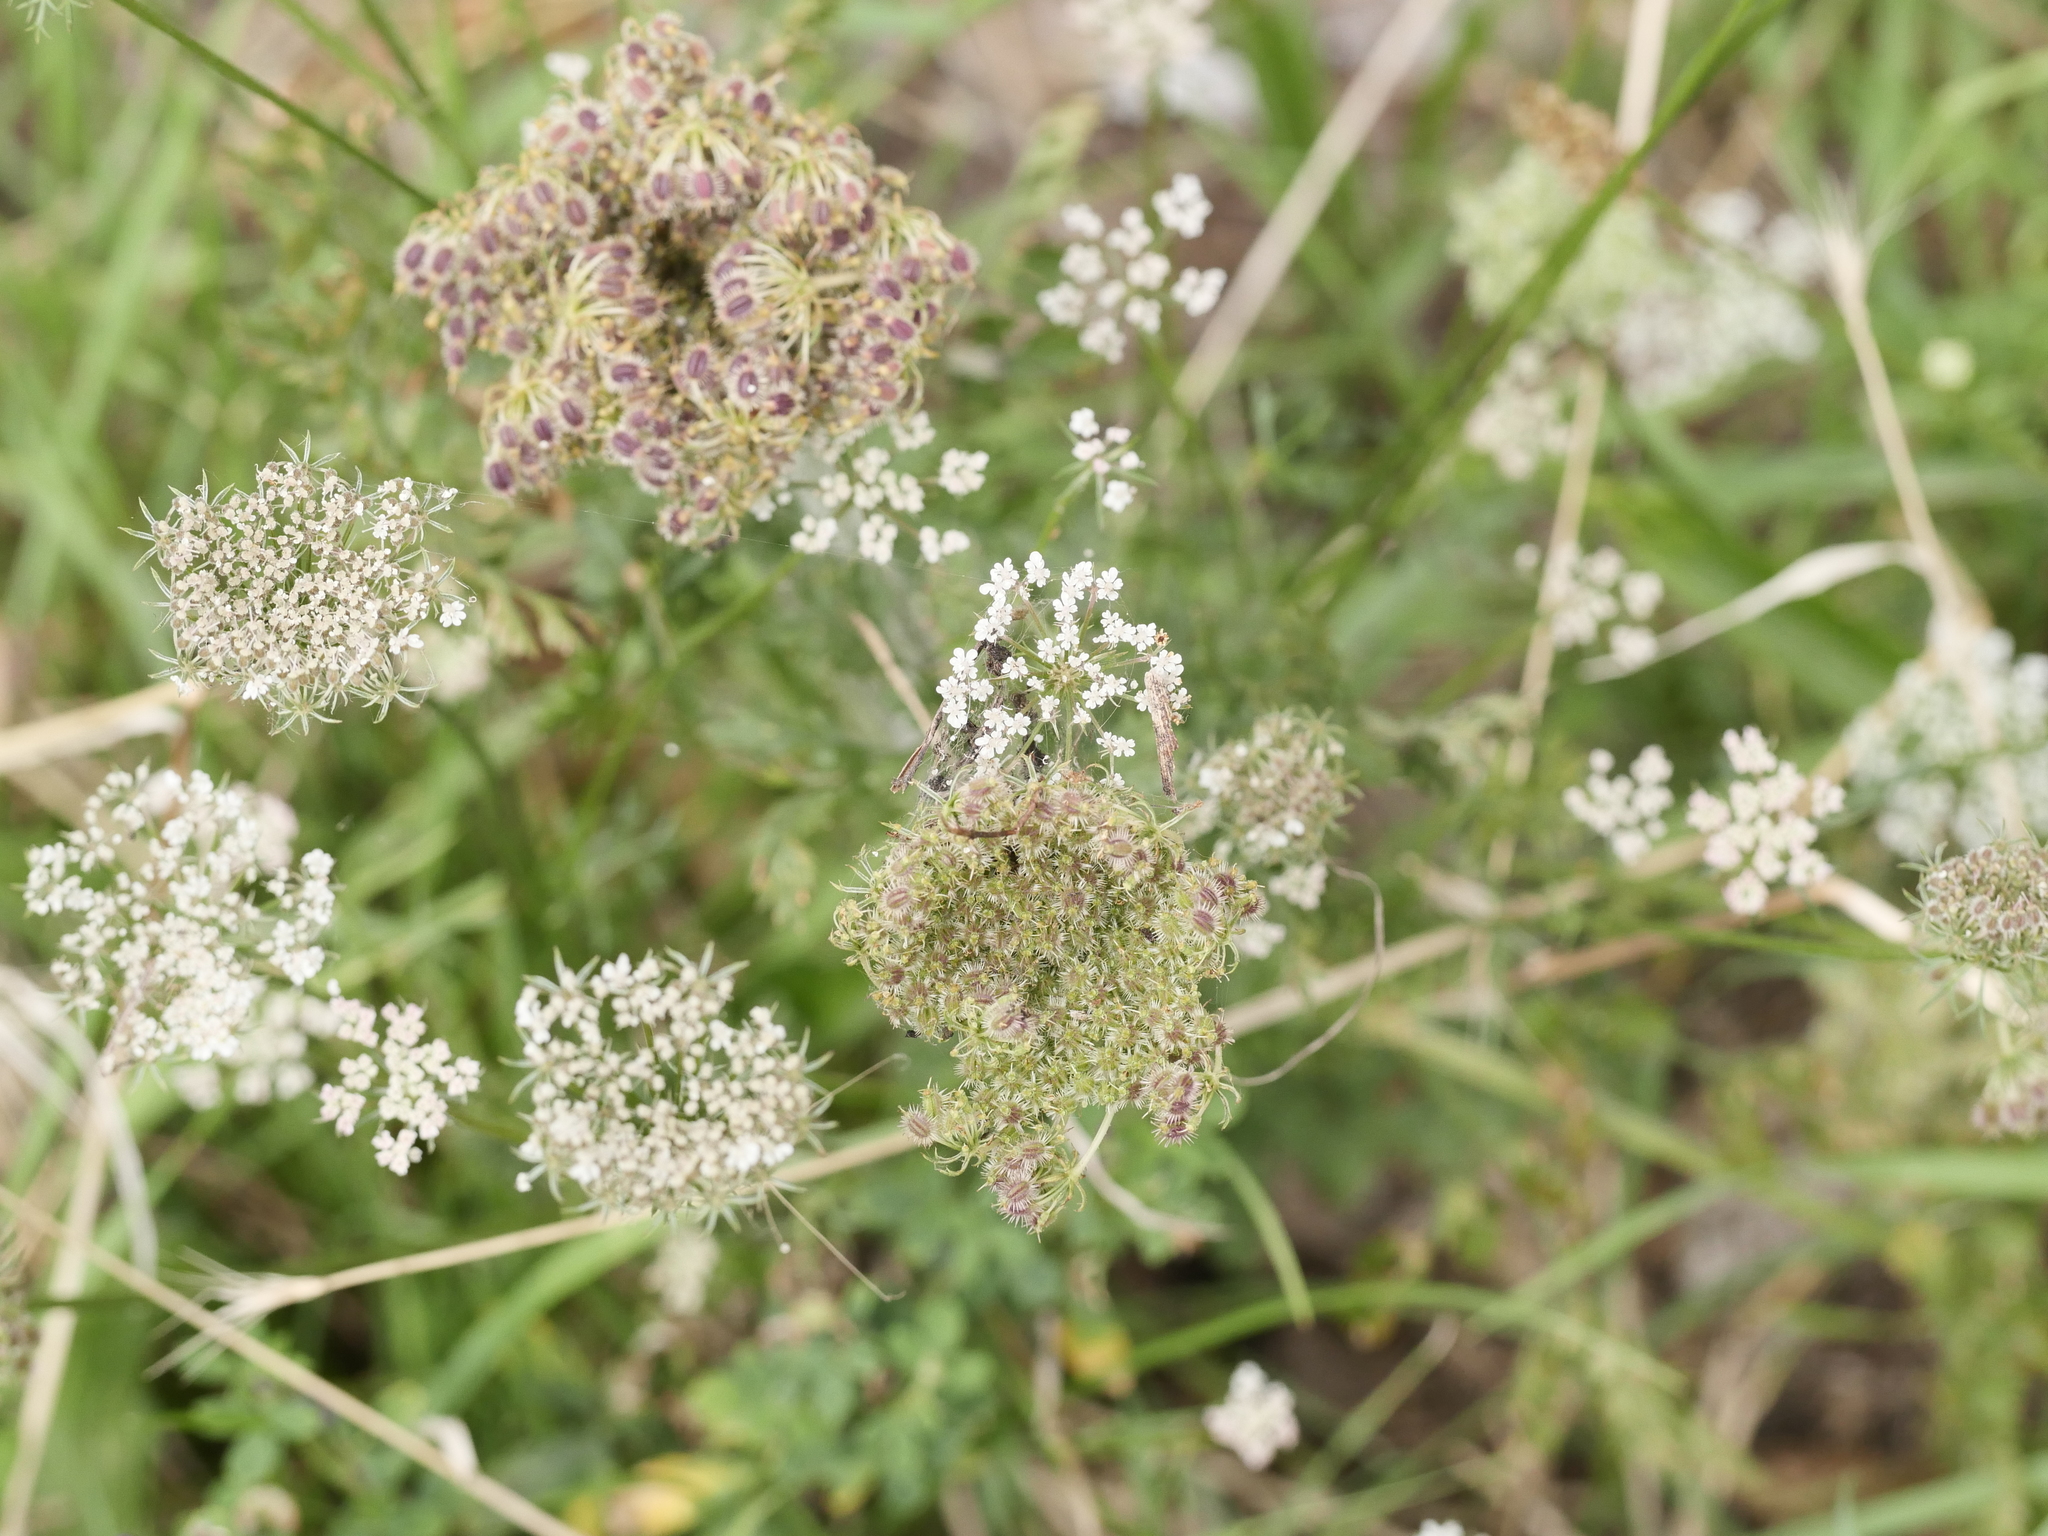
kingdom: Plantae
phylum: Tracheophyta
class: Magnoliopsida
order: Apiales
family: Apiaceae
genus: Daucus
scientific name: Daucus carota
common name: Wild carrot
